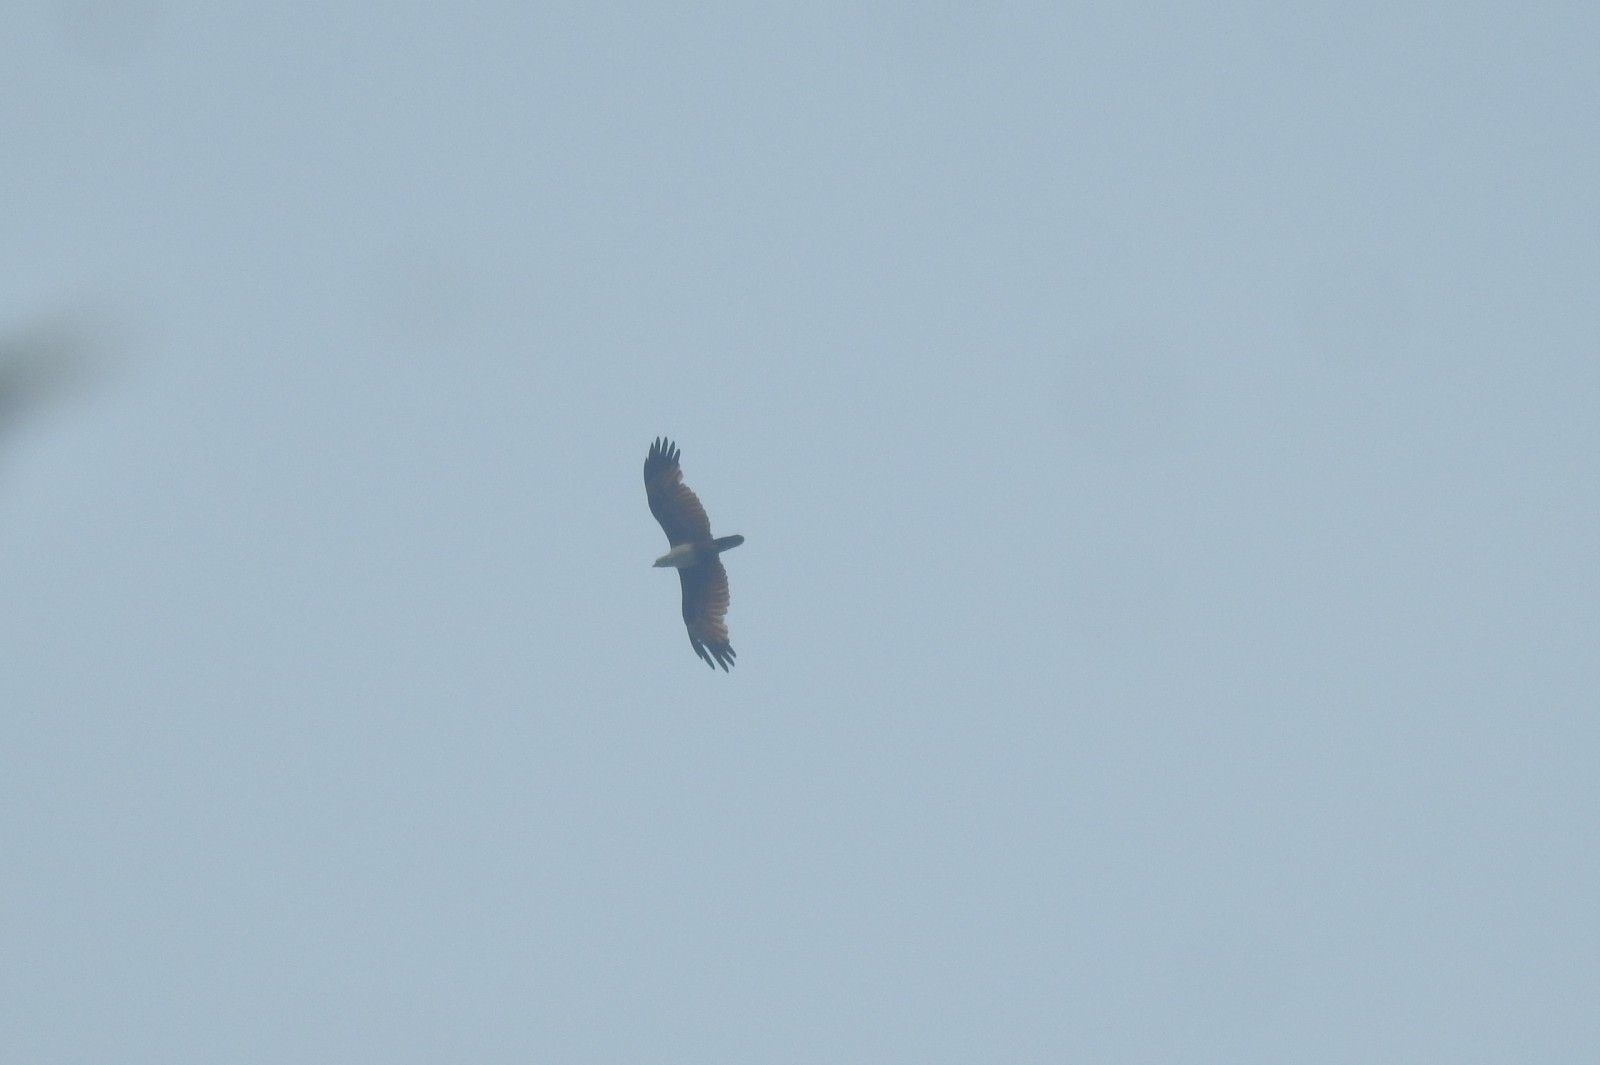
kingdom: Animalia
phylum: Chordata
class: Aves
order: Accipitriformes
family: Accipitridae
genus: Haliastur
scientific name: Haliastur indus
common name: Brahminy kite
